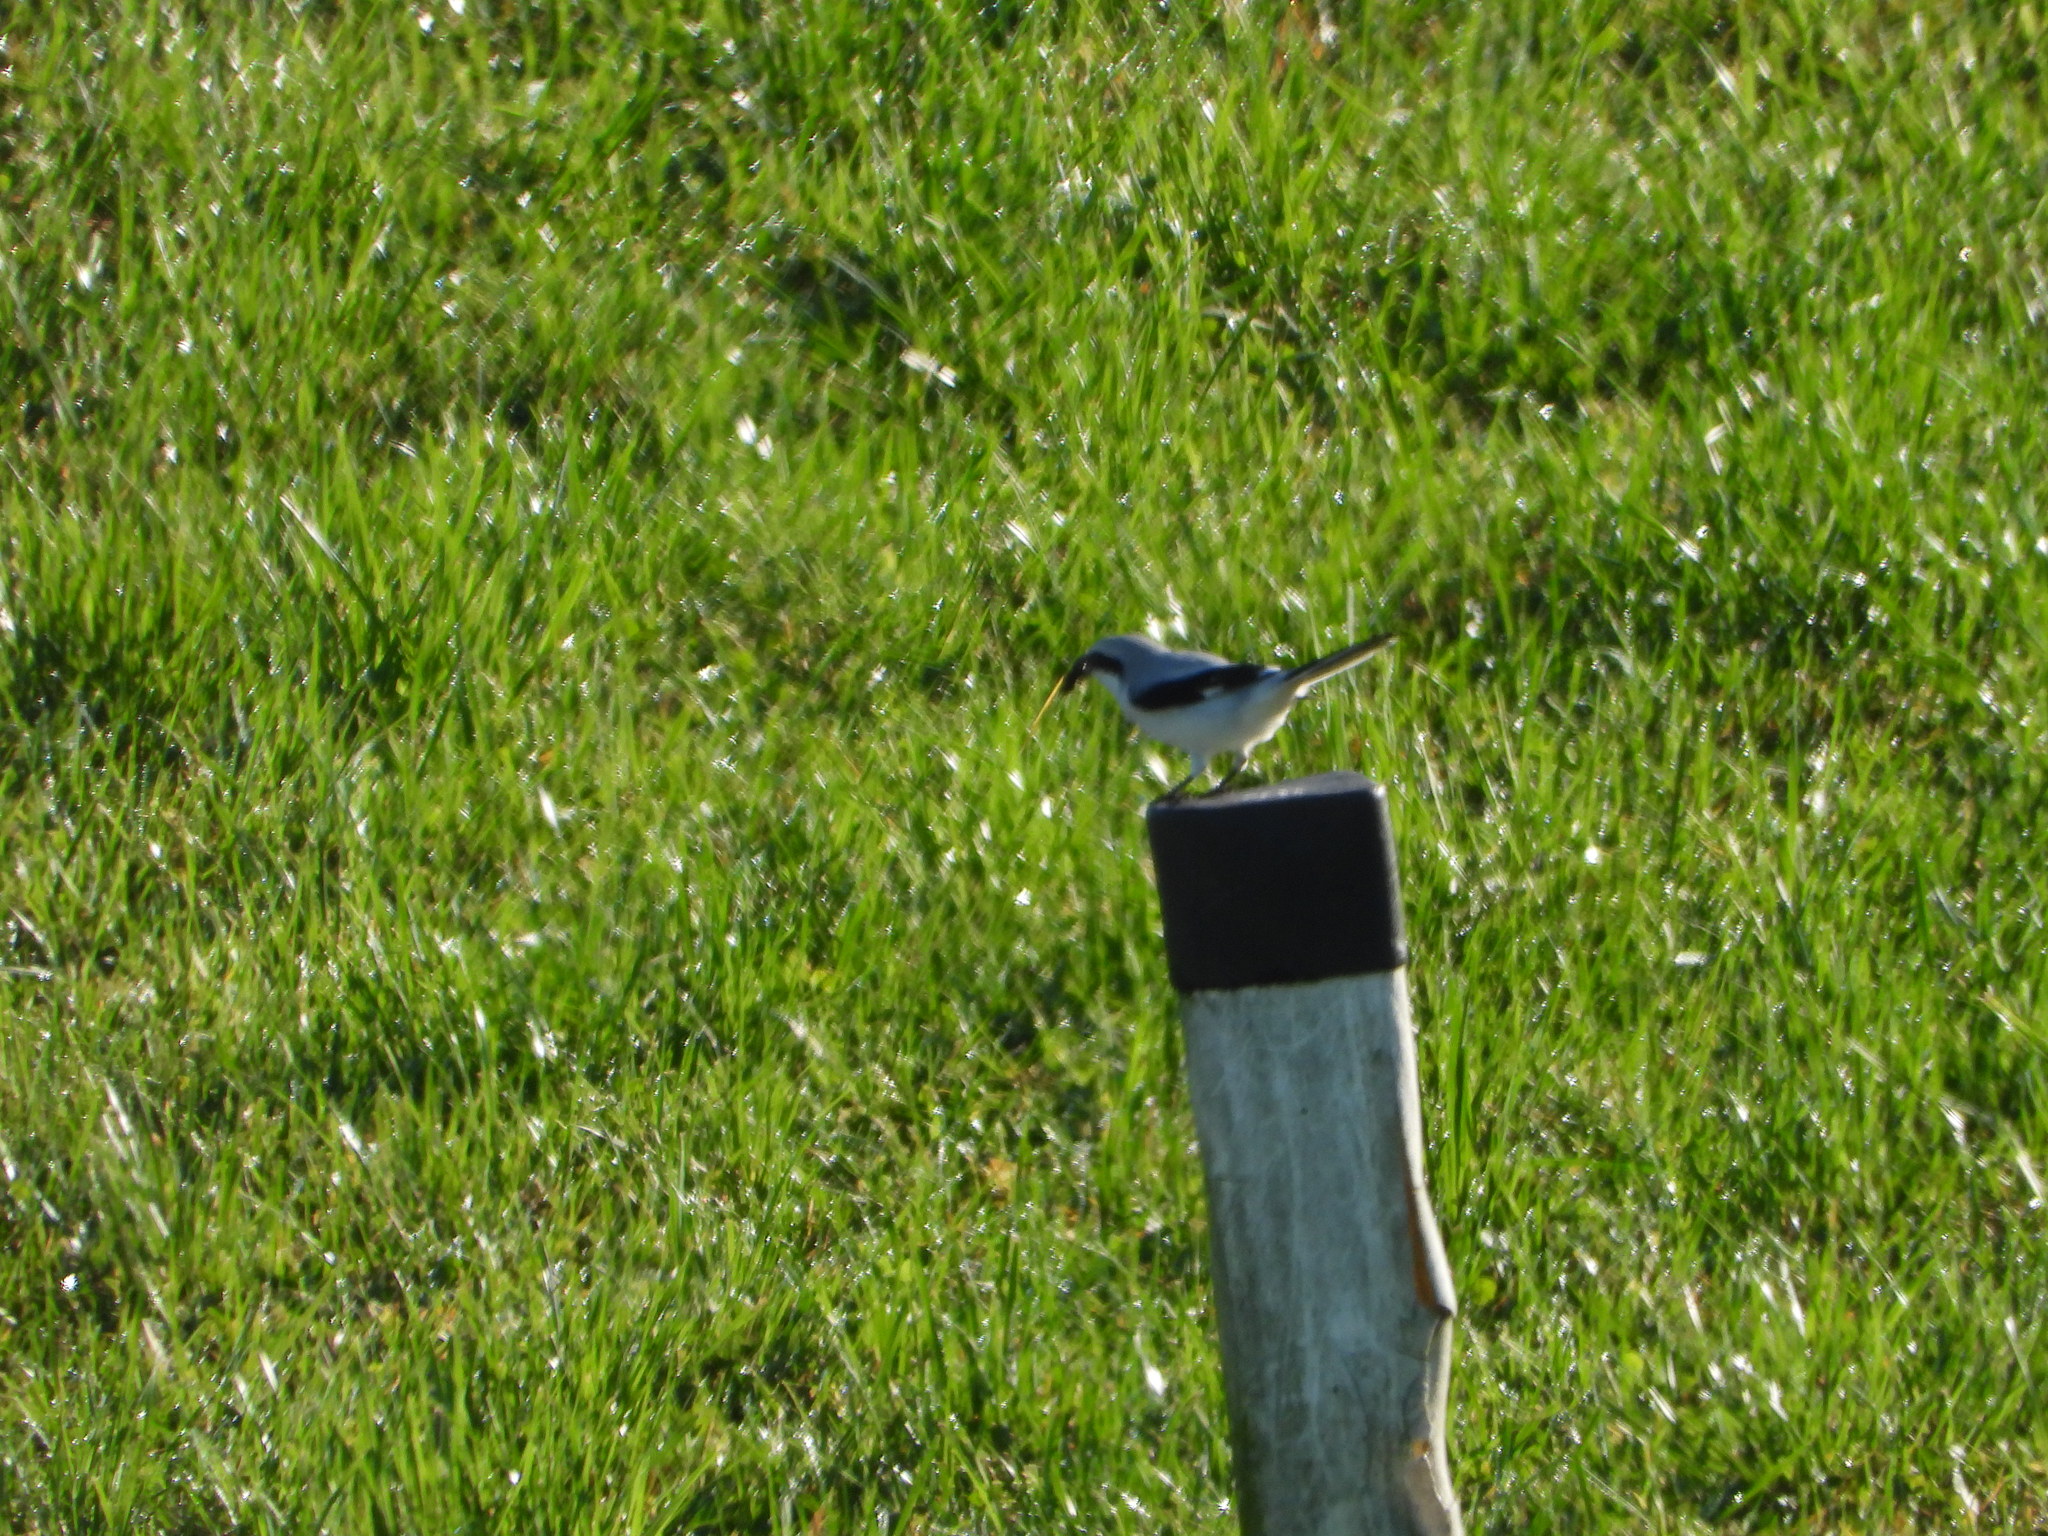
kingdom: Animalia
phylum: Chordata
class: Aves
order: Passeriformes
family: Laniidae
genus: Lanius
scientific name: Lanius excubitor
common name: Great grey shrike
